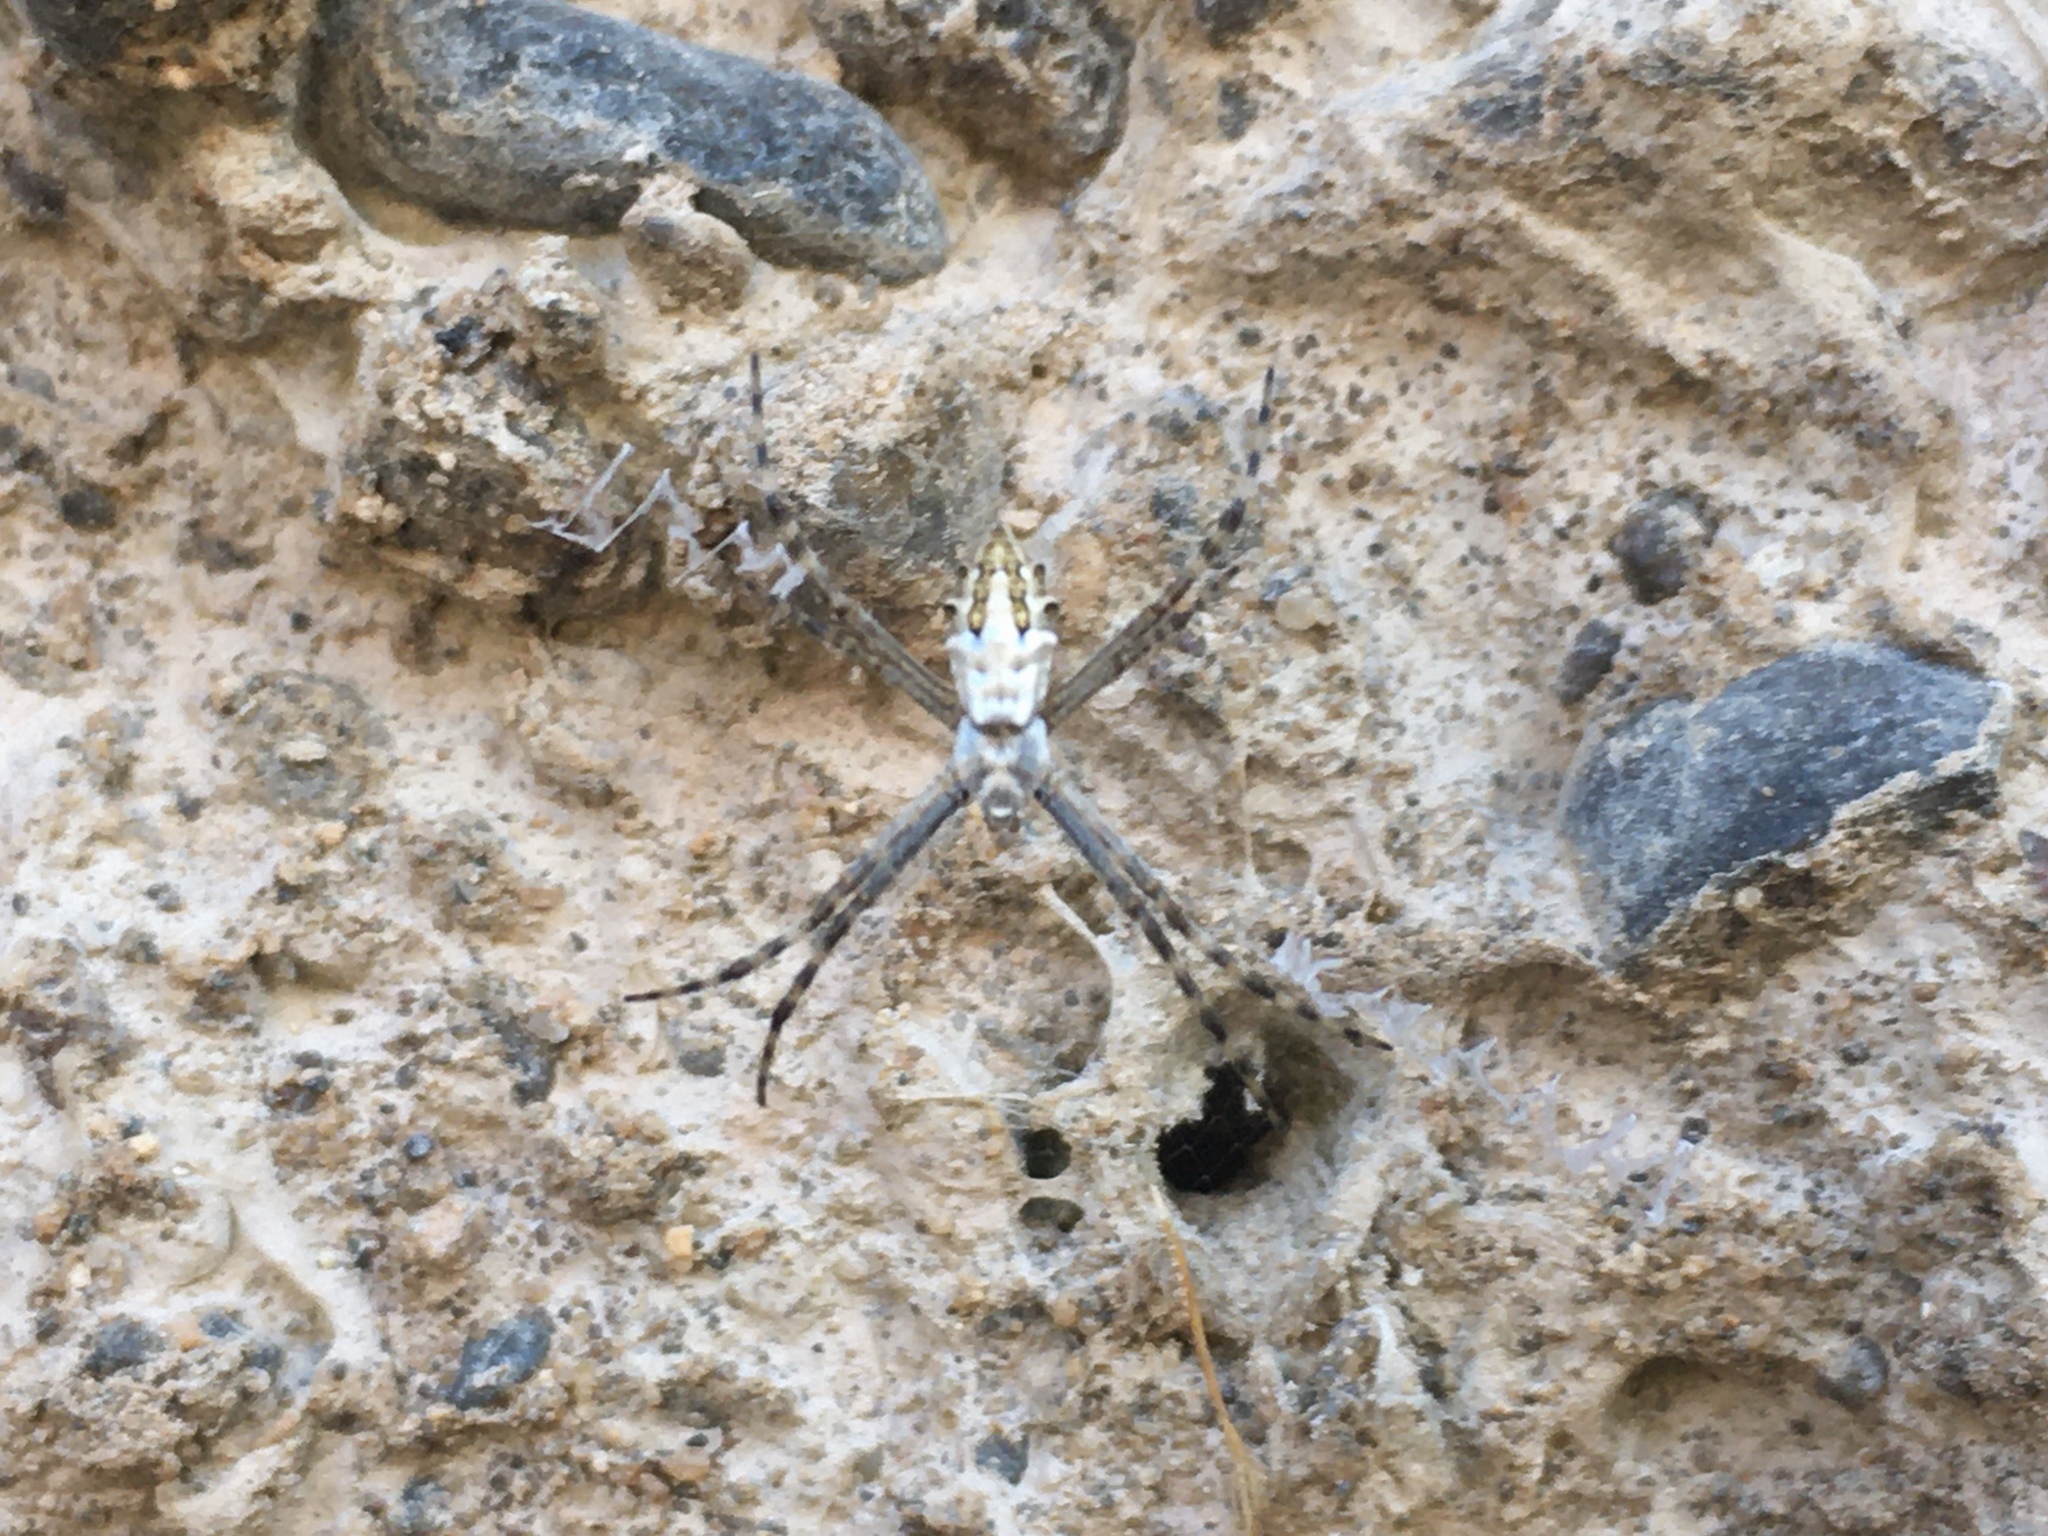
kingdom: Animalia
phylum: Arthropoda
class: Arachnida
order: Araneae
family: Araneidae
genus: Argiope
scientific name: Argiope argentata
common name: Orb weavers
